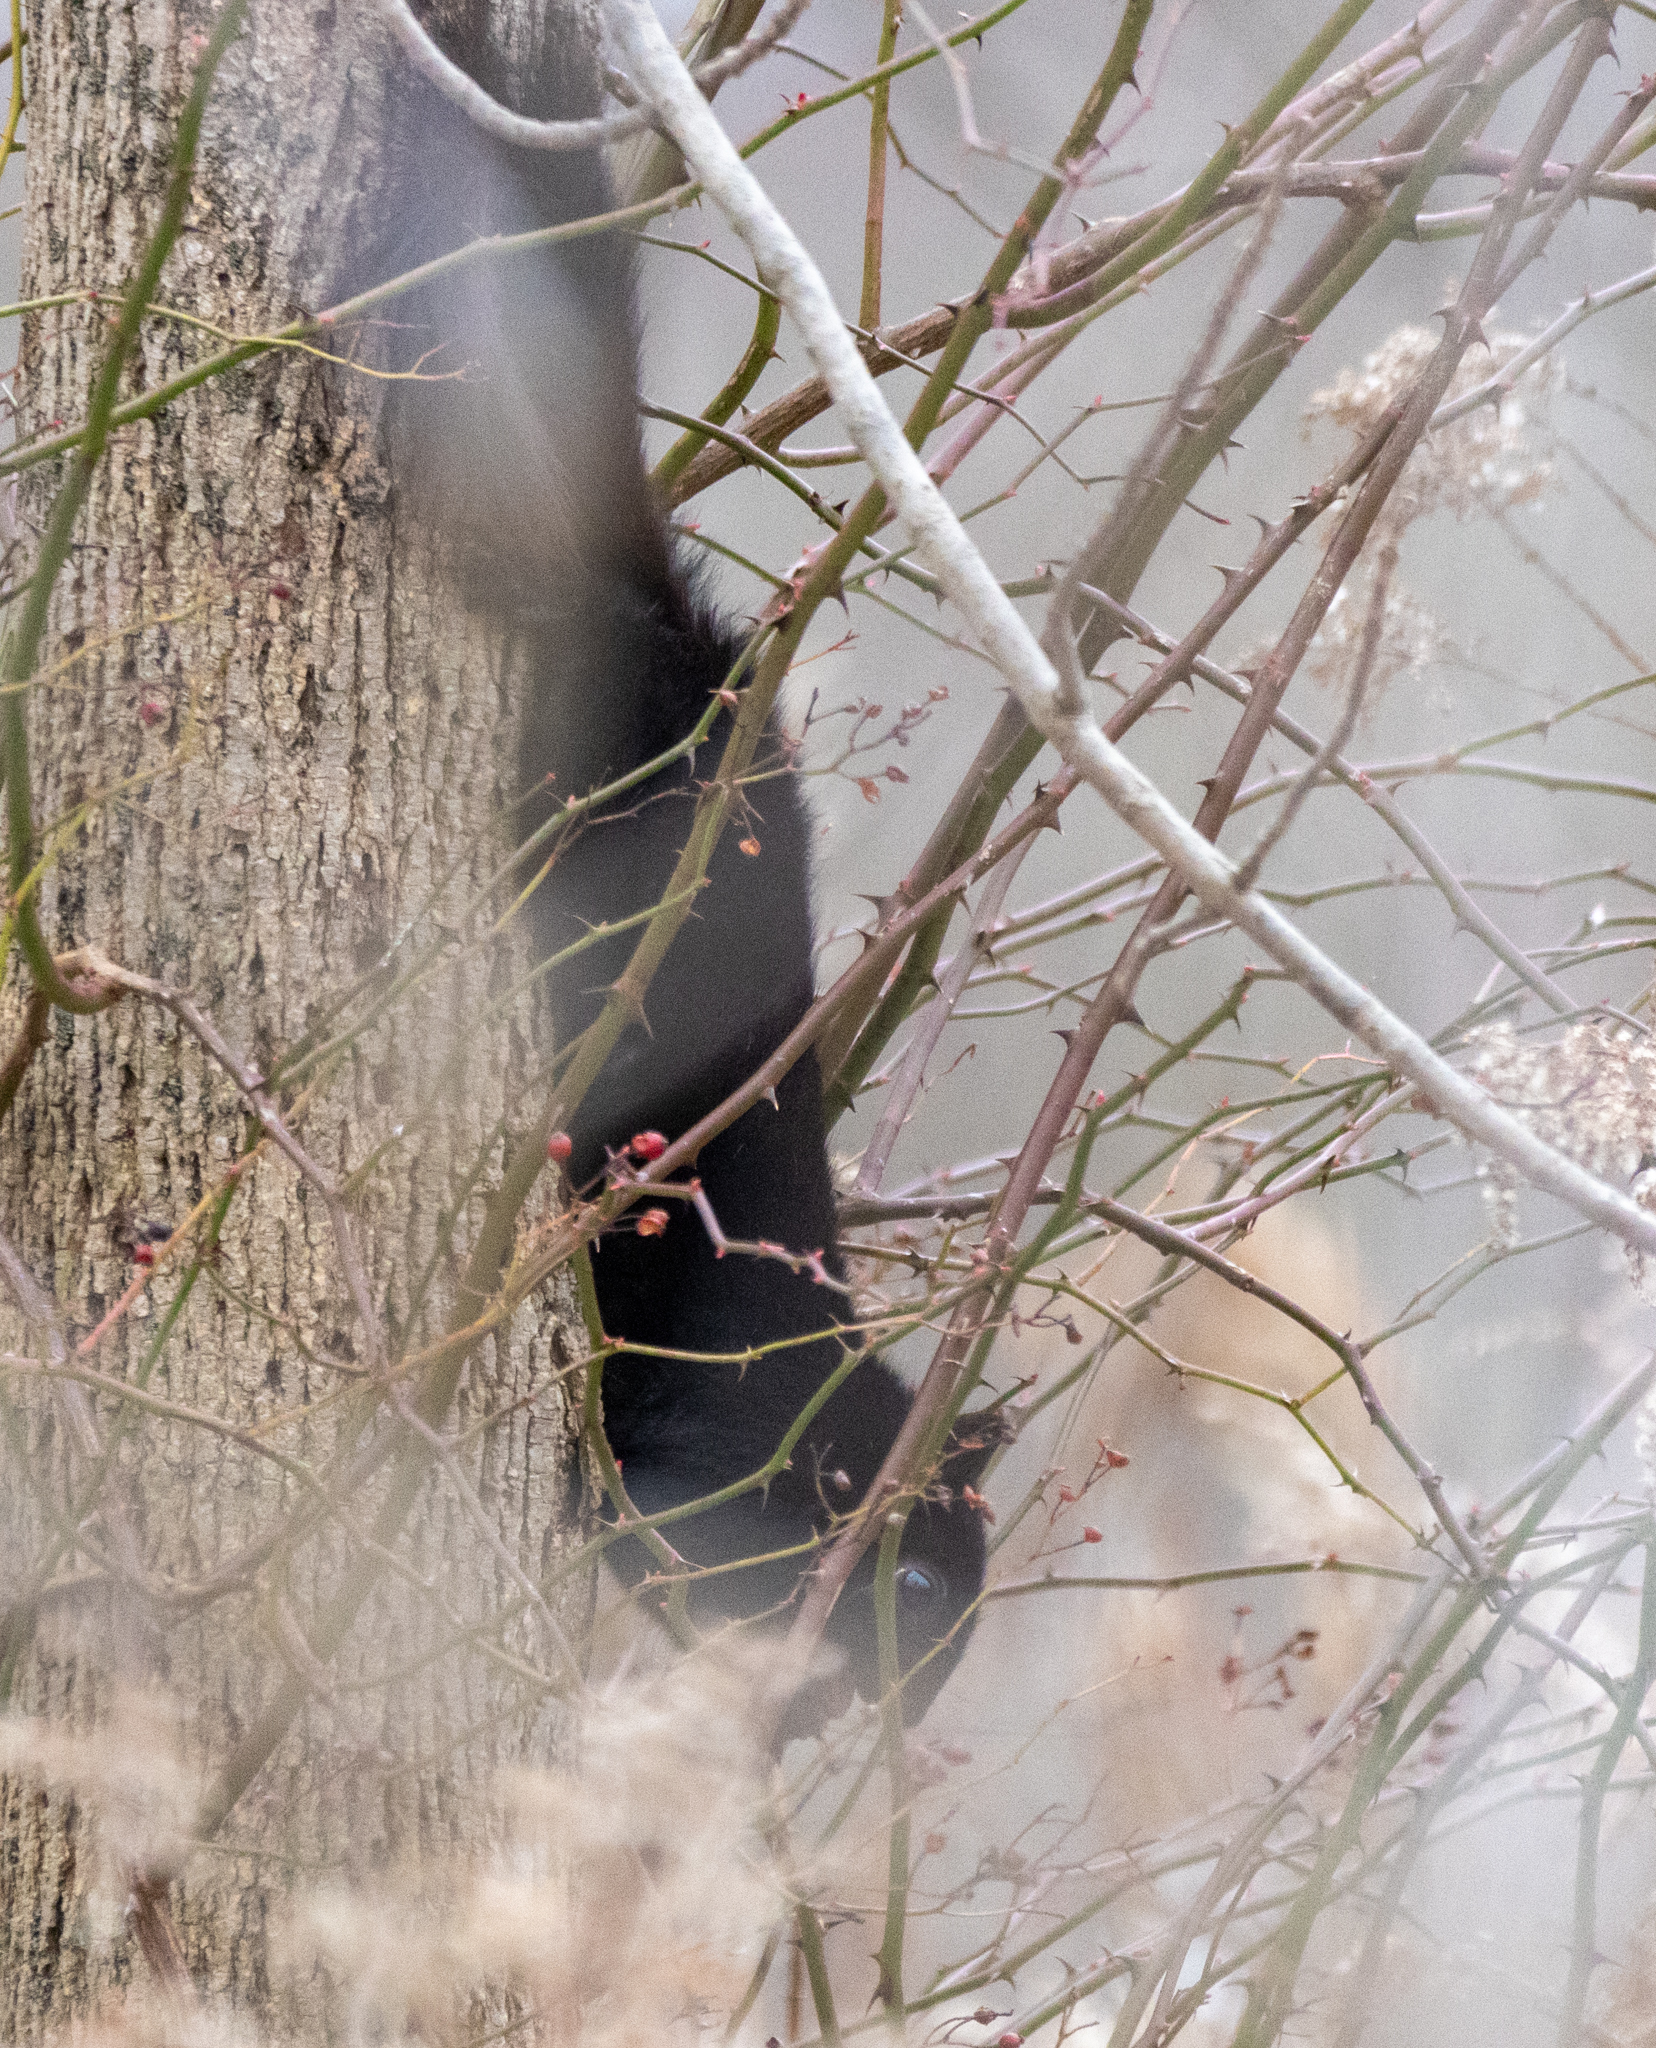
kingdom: Animalia
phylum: Chordata
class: Mammalia
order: Rodentia
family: Sciuridae
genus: Sciurus
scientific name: Sciurus carolinensis
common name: Eastern gray squirrel
